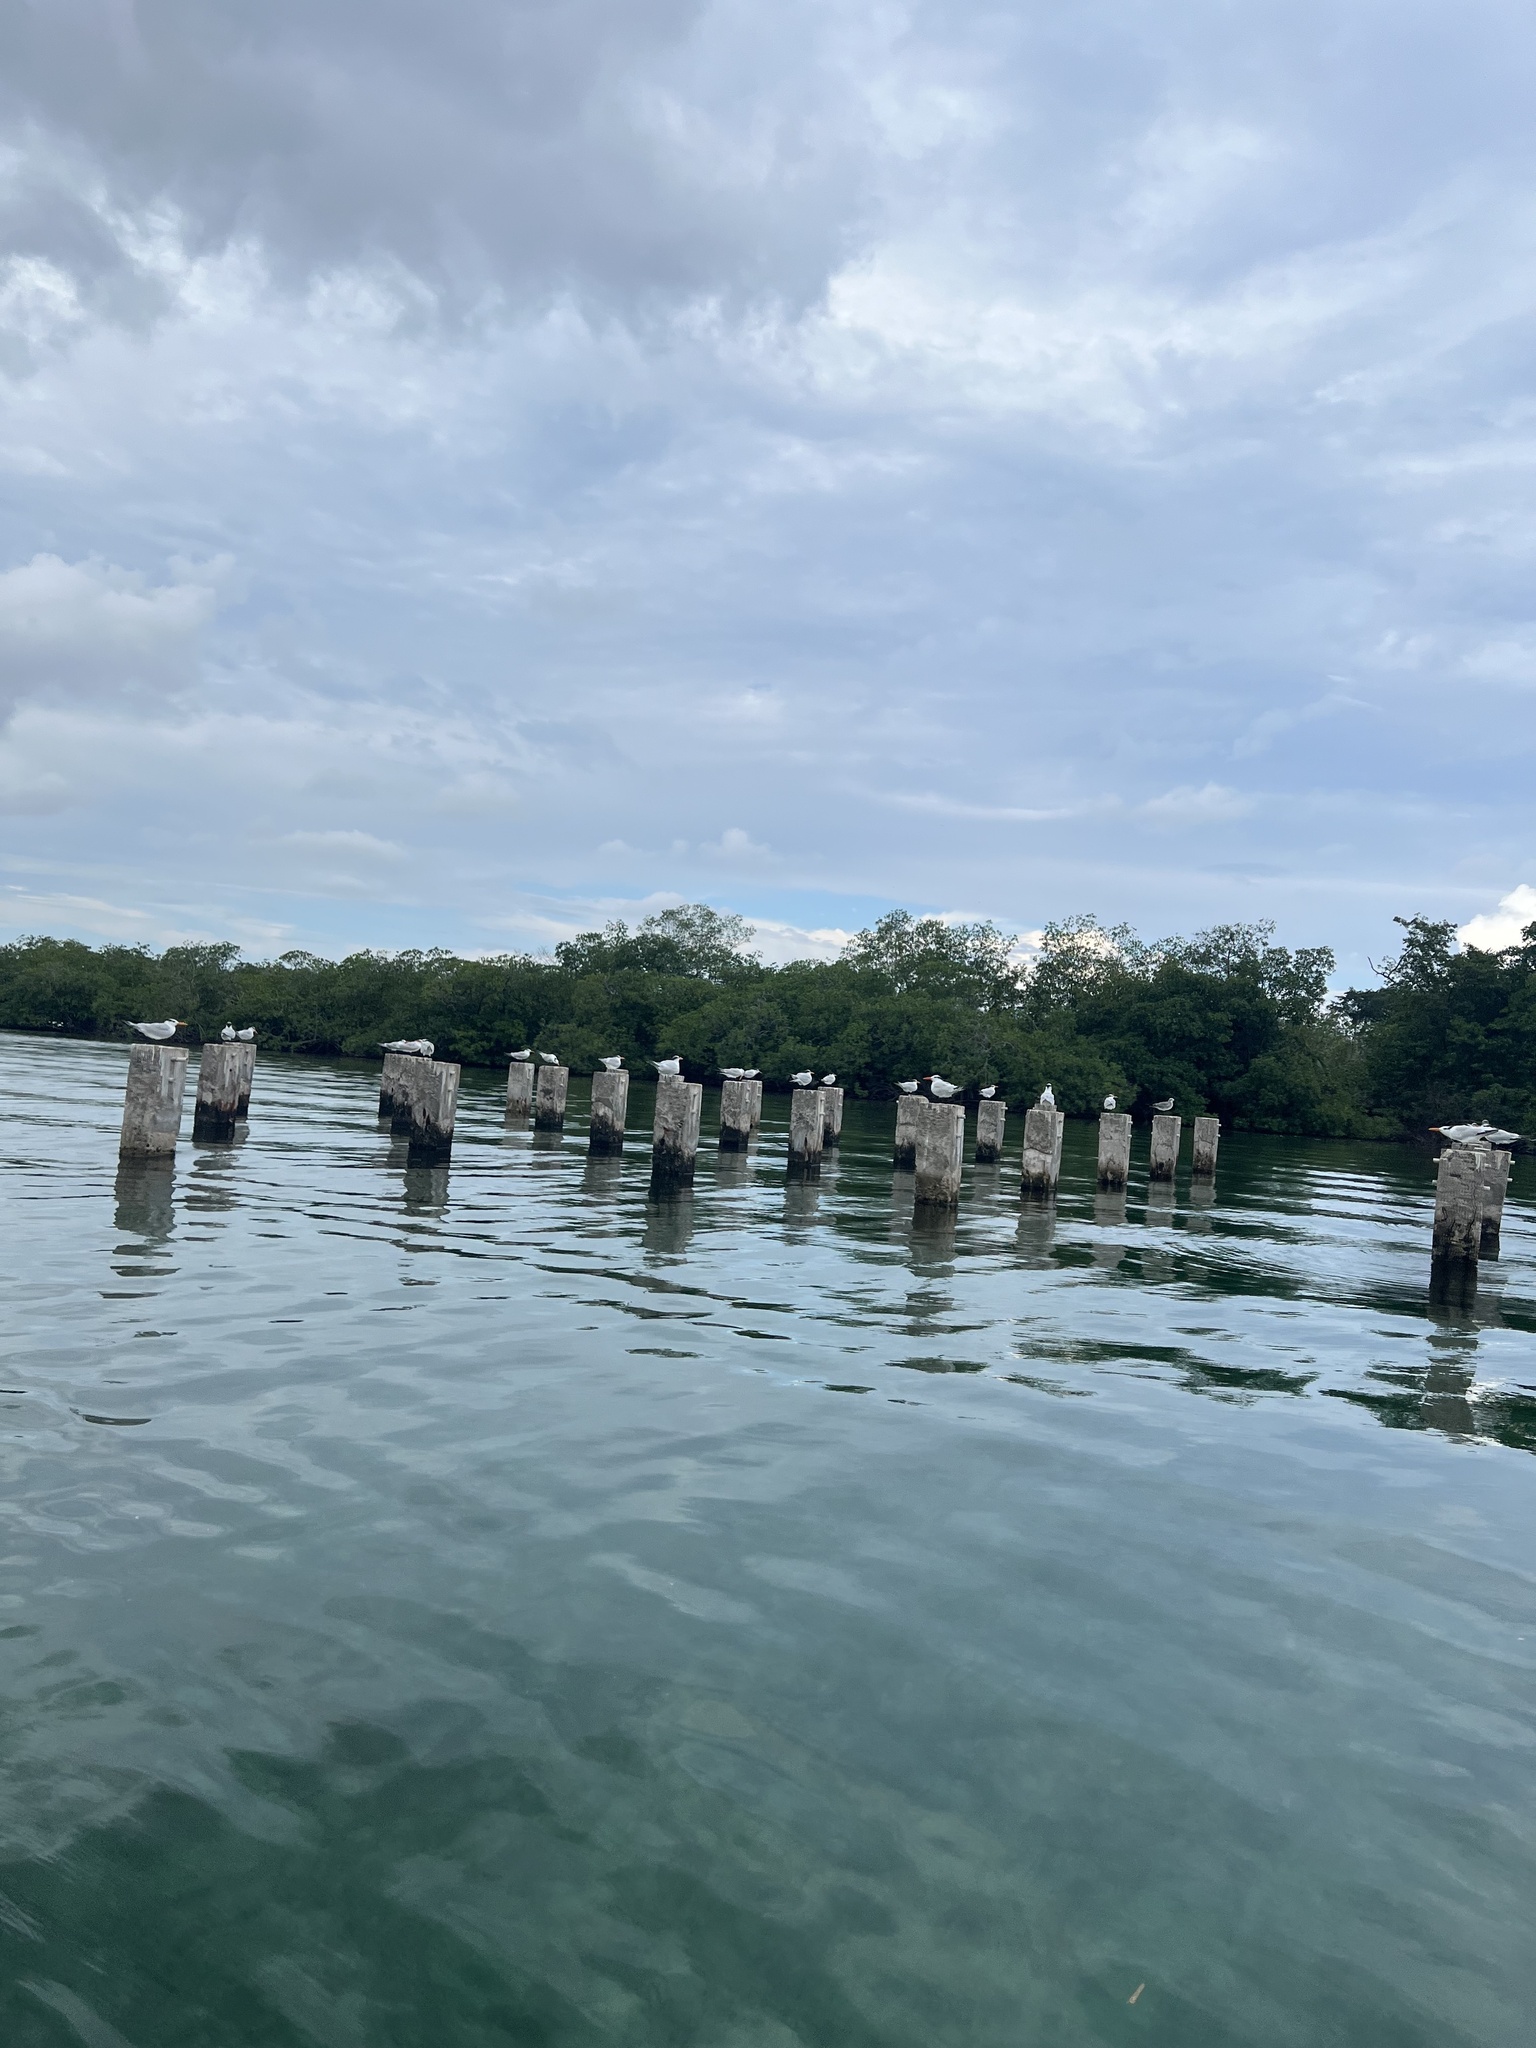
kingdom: Animalia
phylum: Chordata
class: Aves
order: Charadriiformes
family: Laridae
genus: Thalasseus
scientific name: Thalasseus maximus
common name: Royal tern
